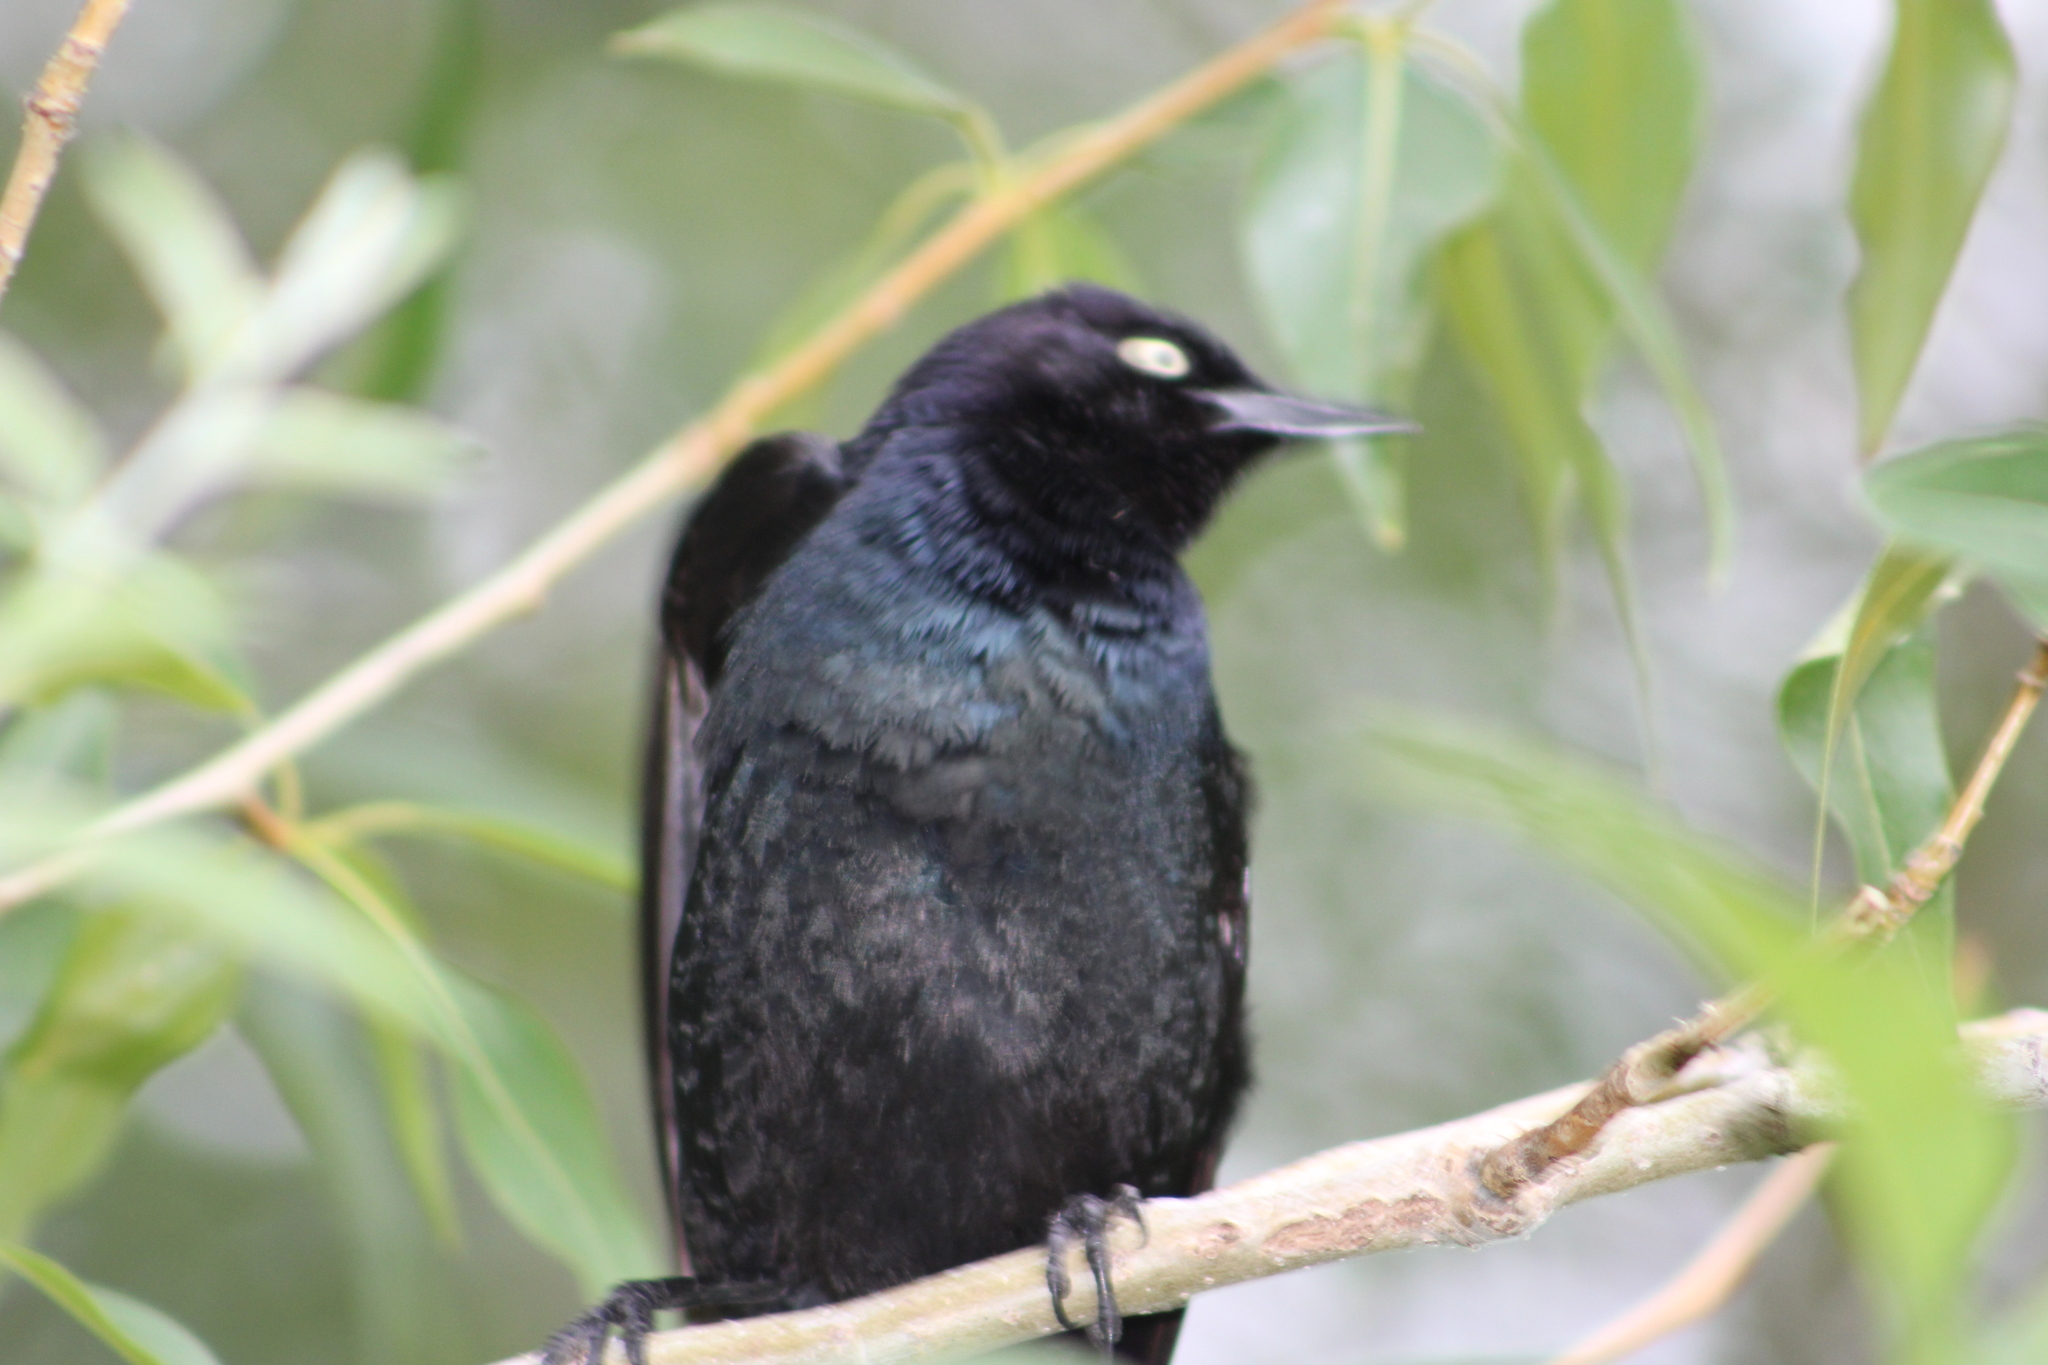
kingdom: Animalia
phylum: Chordata
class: Aves
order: Passeriformes
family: Icteridae
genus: Euphagus
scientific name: Euphagus cyanocephalus
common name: Brewer's blackbird
